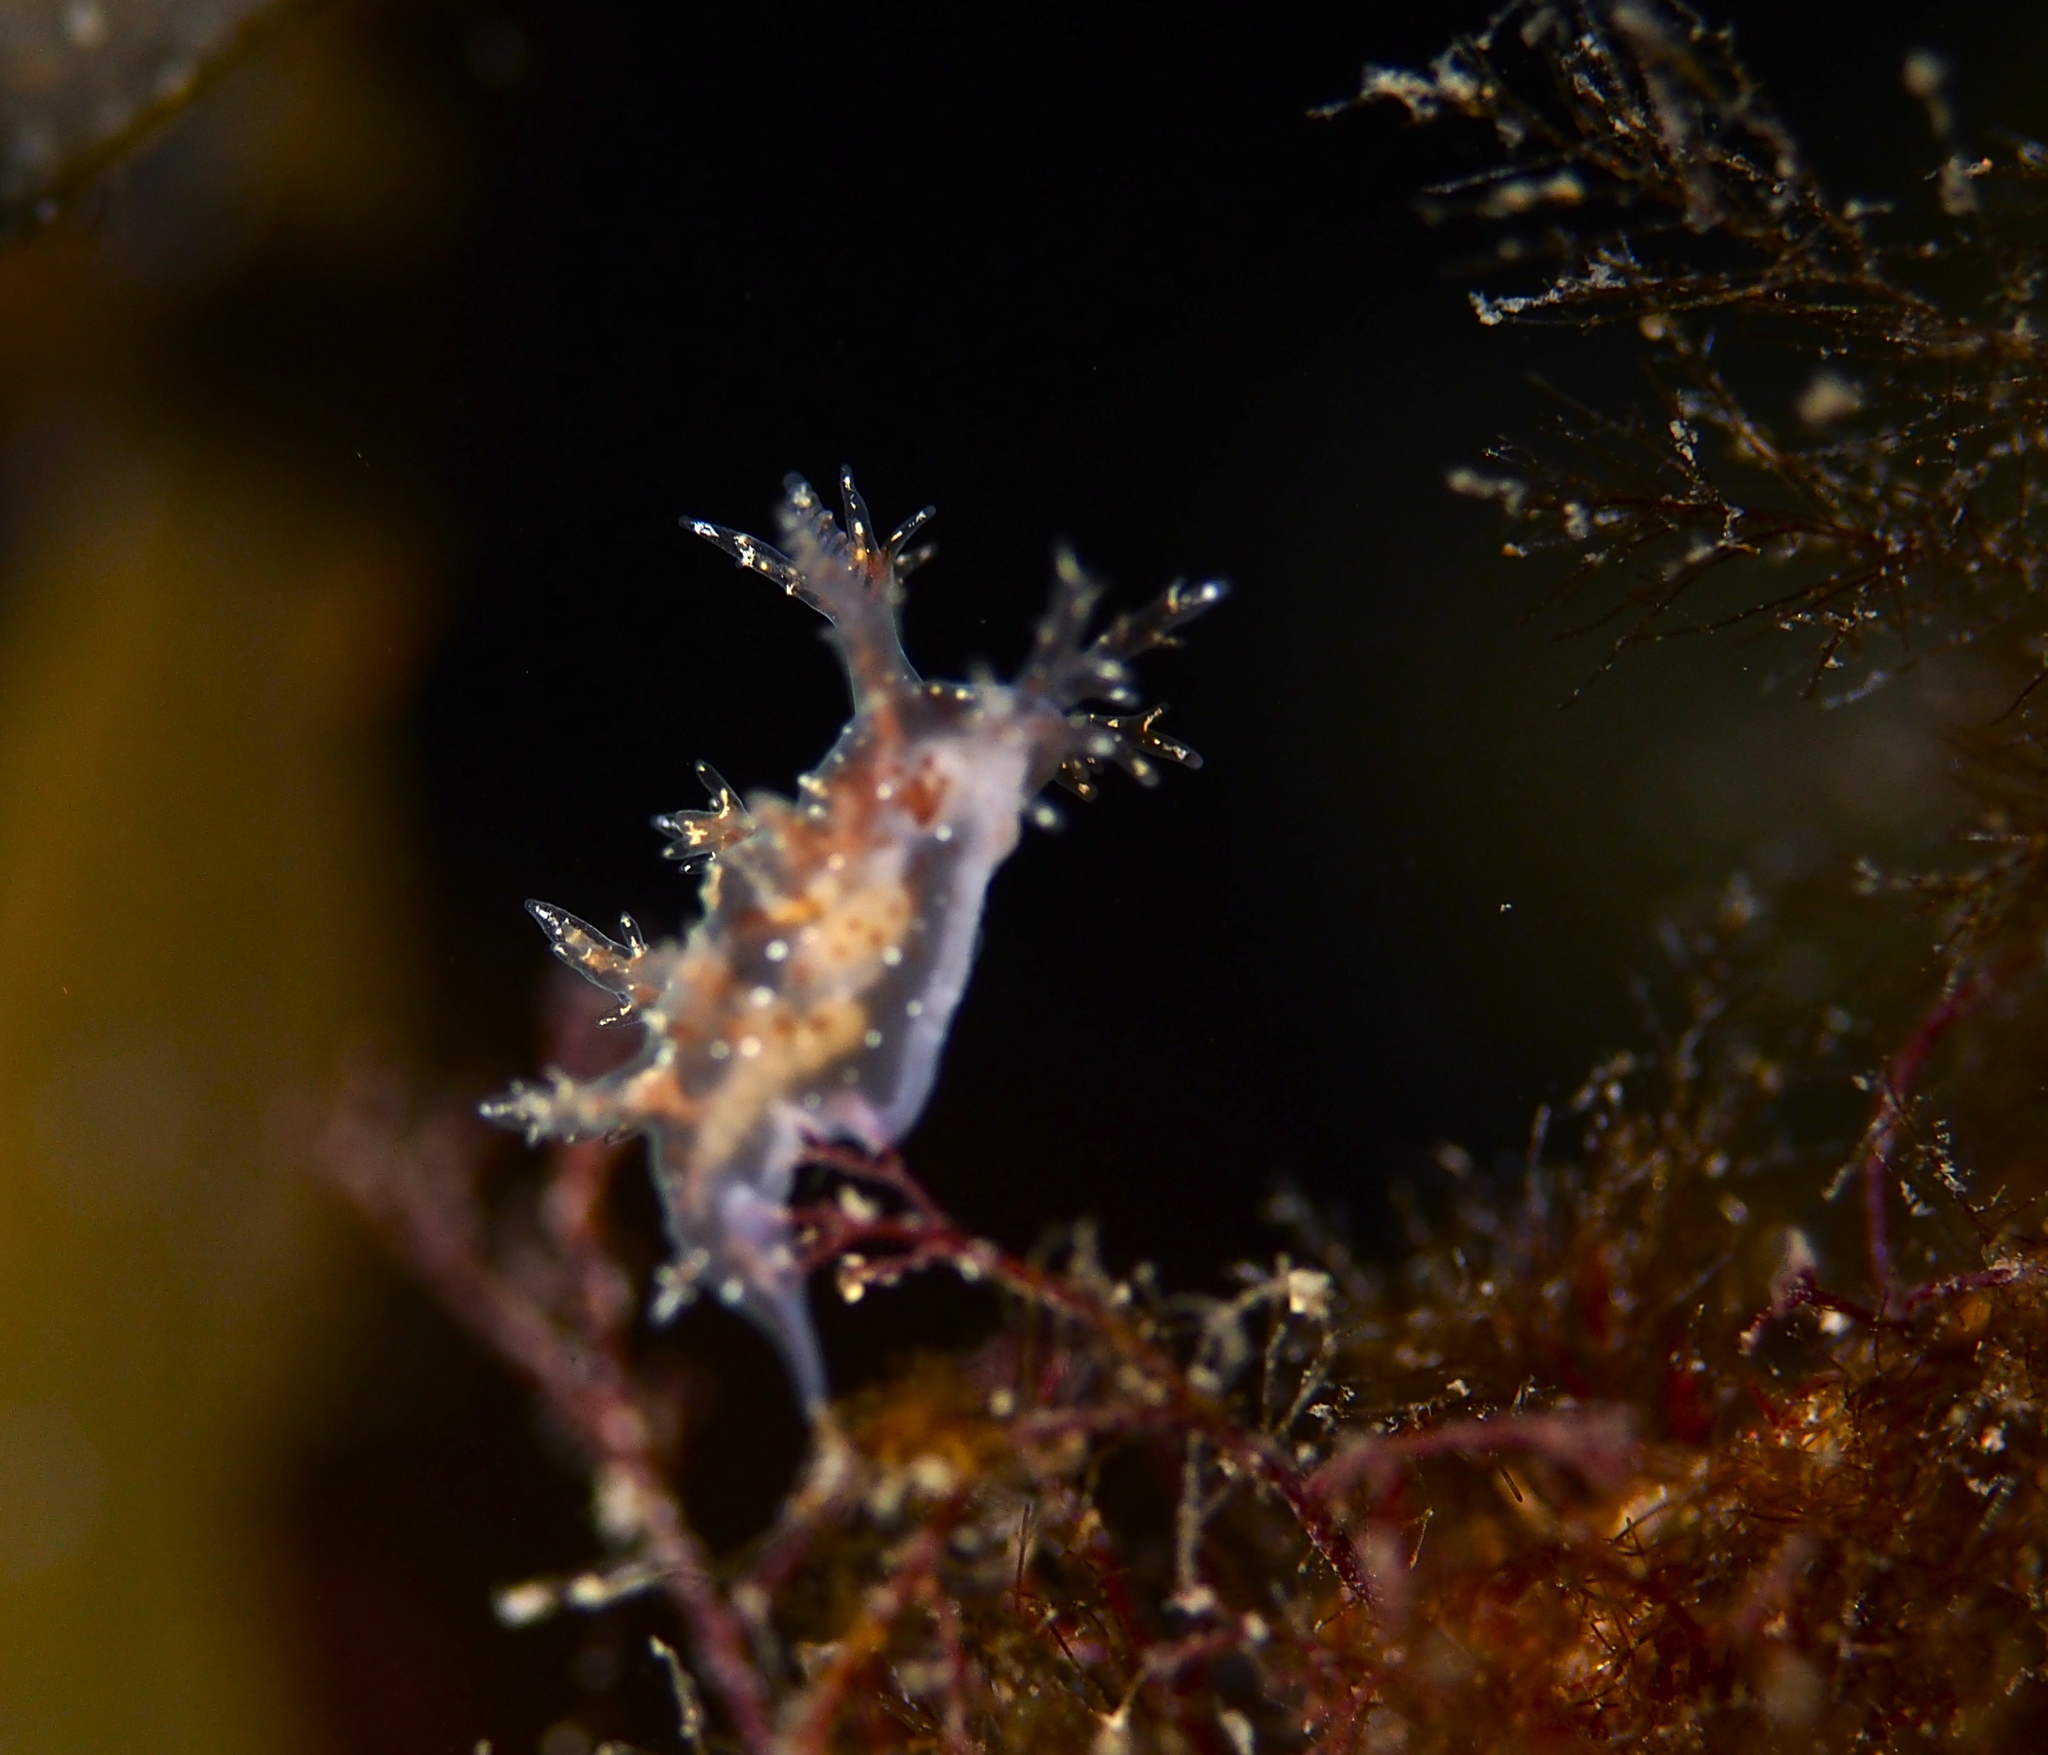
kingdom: Animalia
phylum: Mollusca
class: Gastropoda
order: Nudibranchia
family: Dendronotidae
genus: Dendronotus
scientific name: Dendronotus frondosus
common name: Bushy-backed nudibranch
